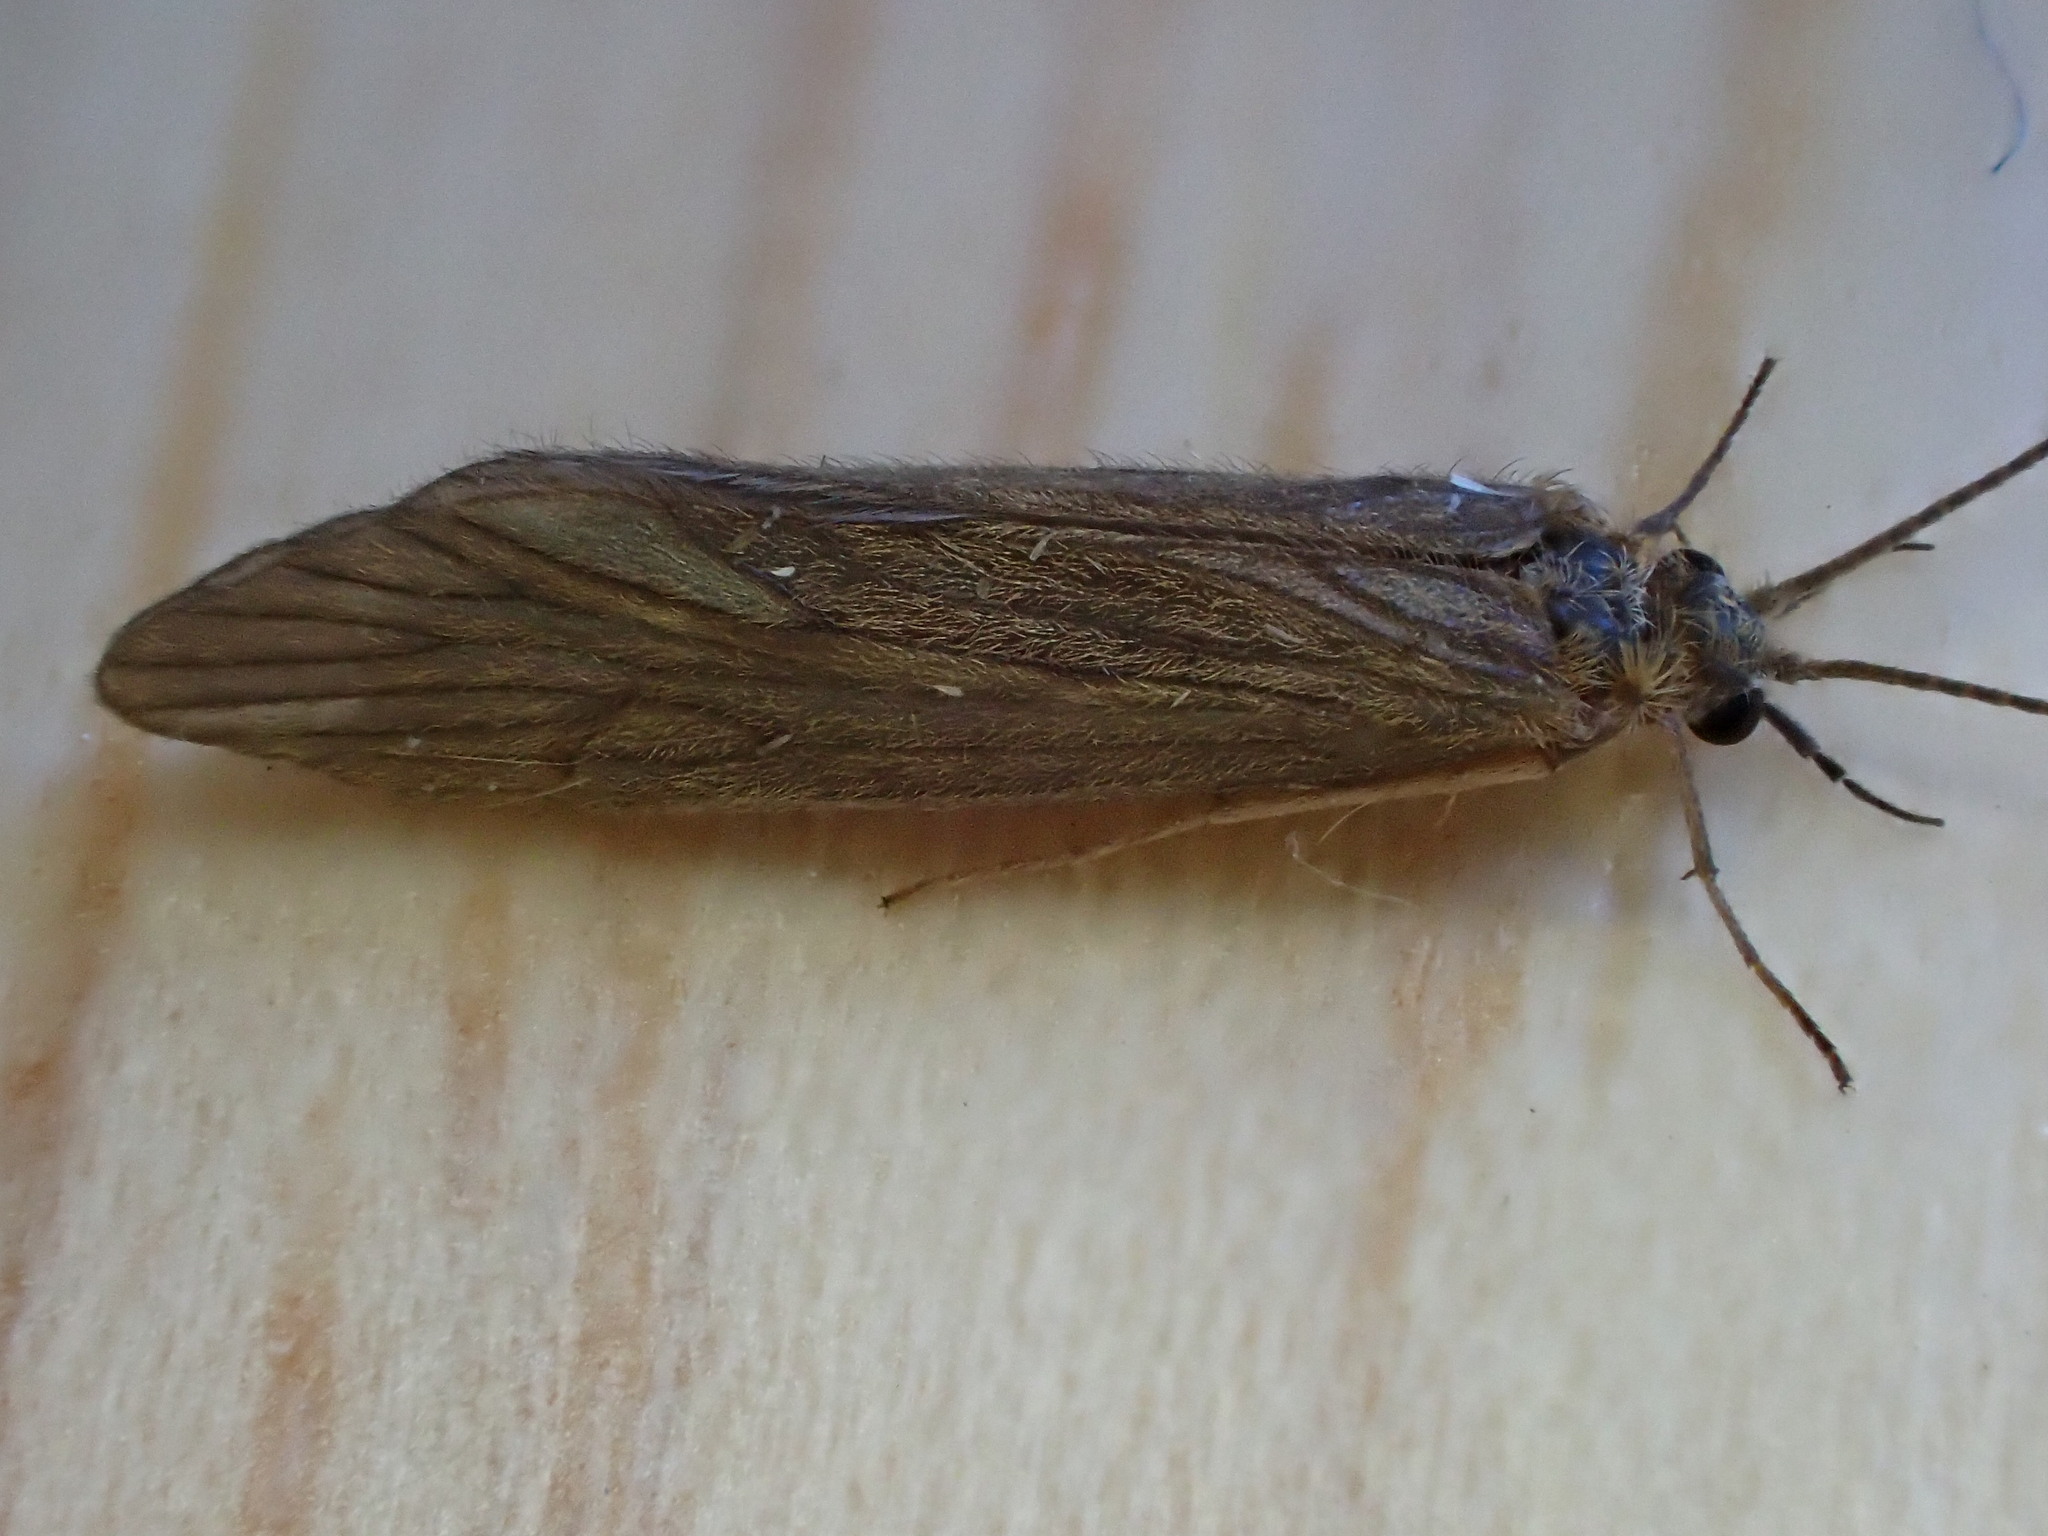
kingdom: Animalia
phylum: Arthropoda
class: Insecta
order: Trichoptera
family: Psychomyiidae
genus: Tinodes
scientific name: Tinodes waeneri
